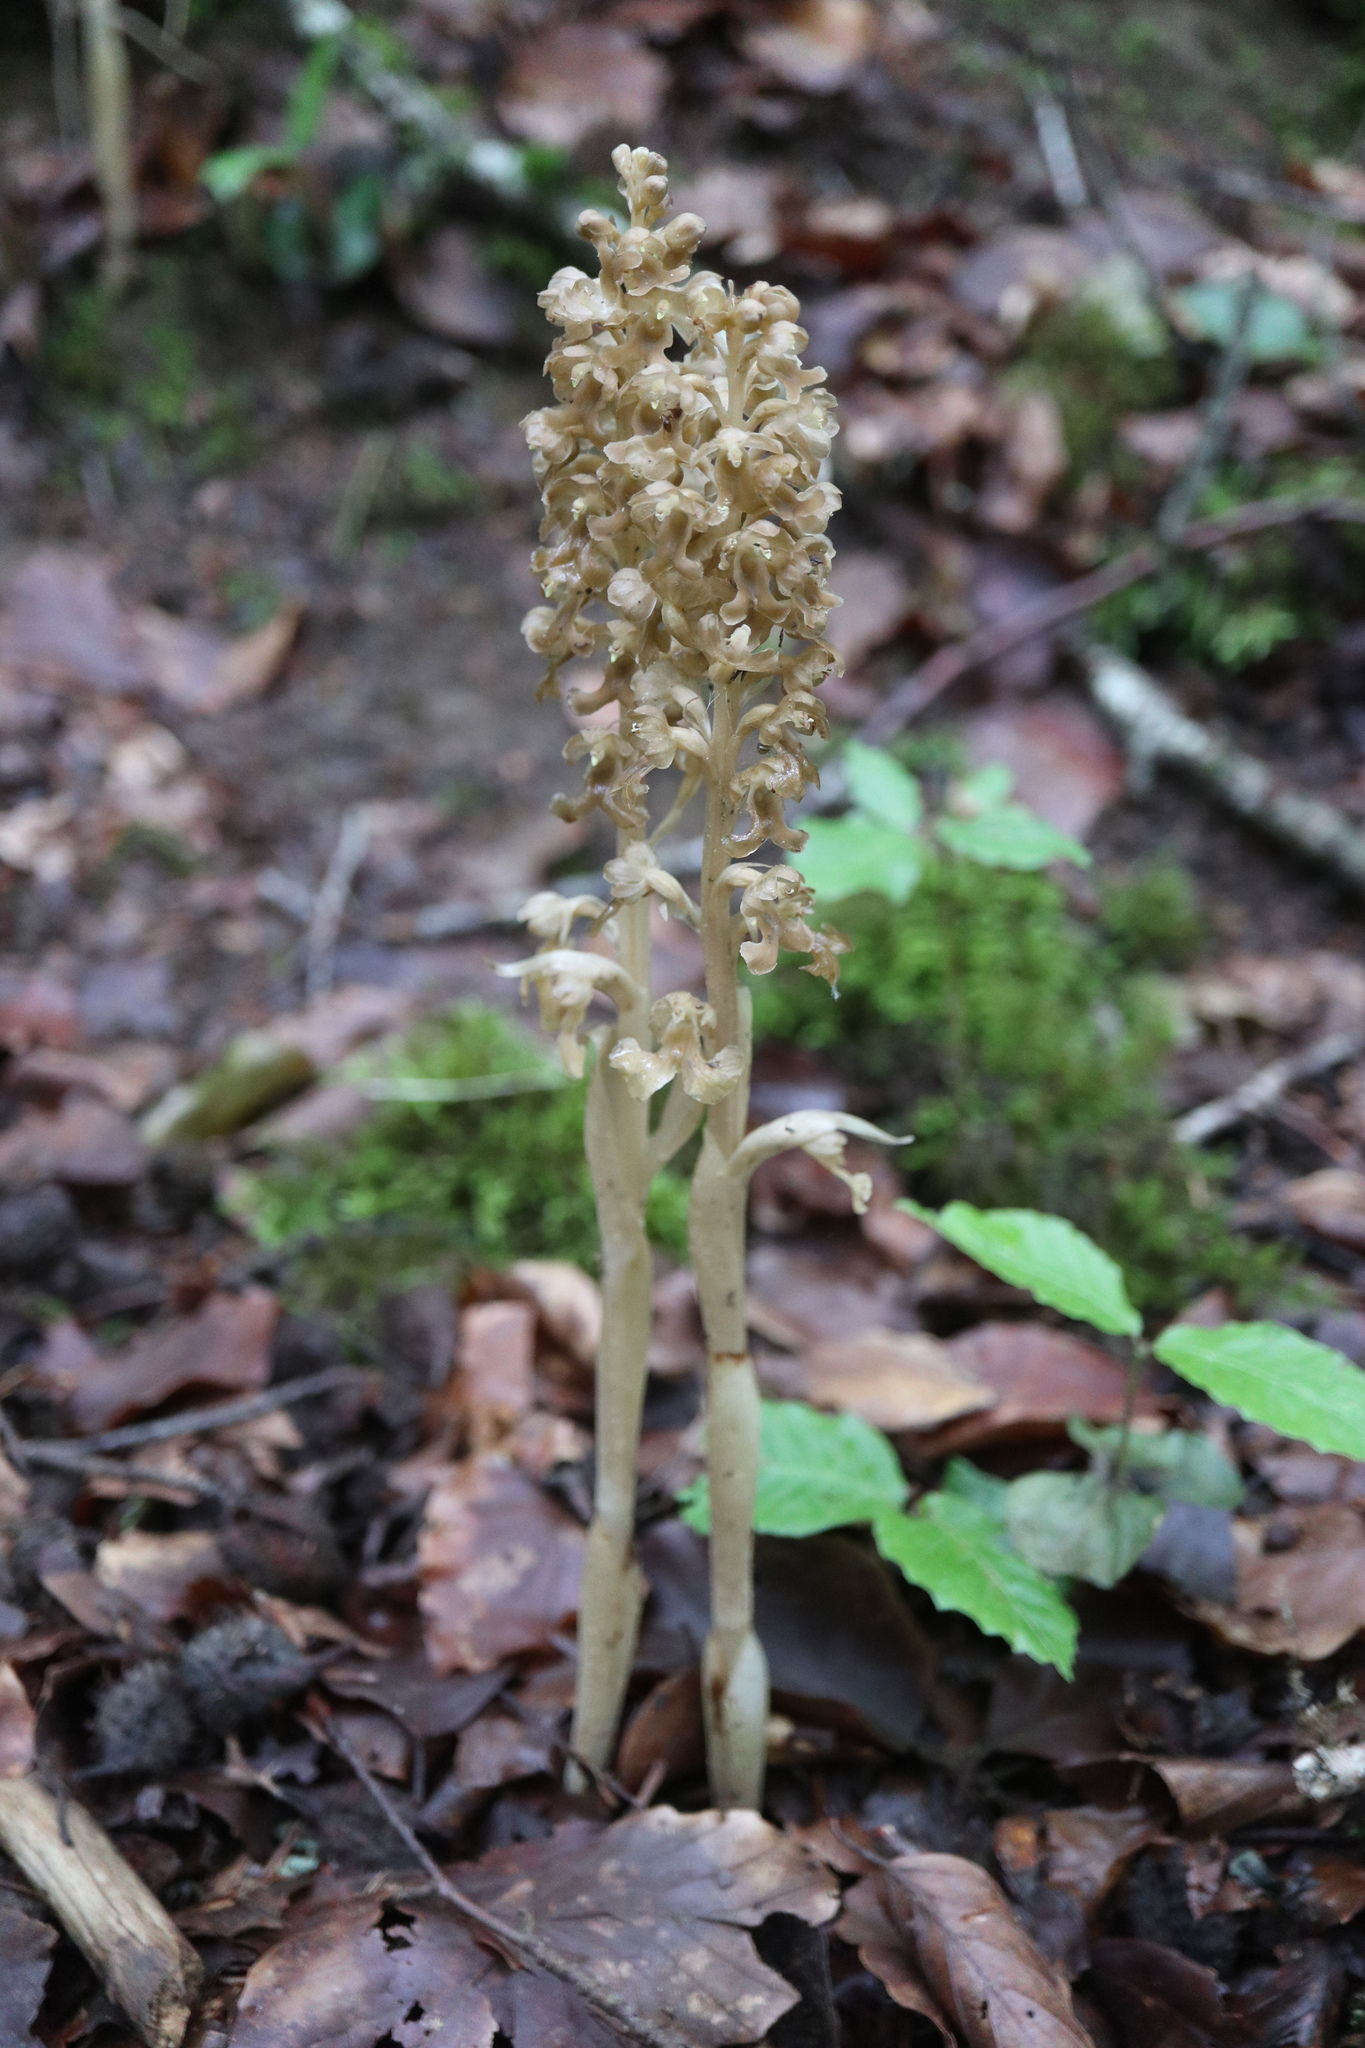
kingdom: Plantae
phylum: Tracheophyta
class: Liliopsida
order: Asparagales
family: Orchidaceae
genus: Neottia
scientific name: Neottia nidus-avis
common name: Bird's-nest orchid
